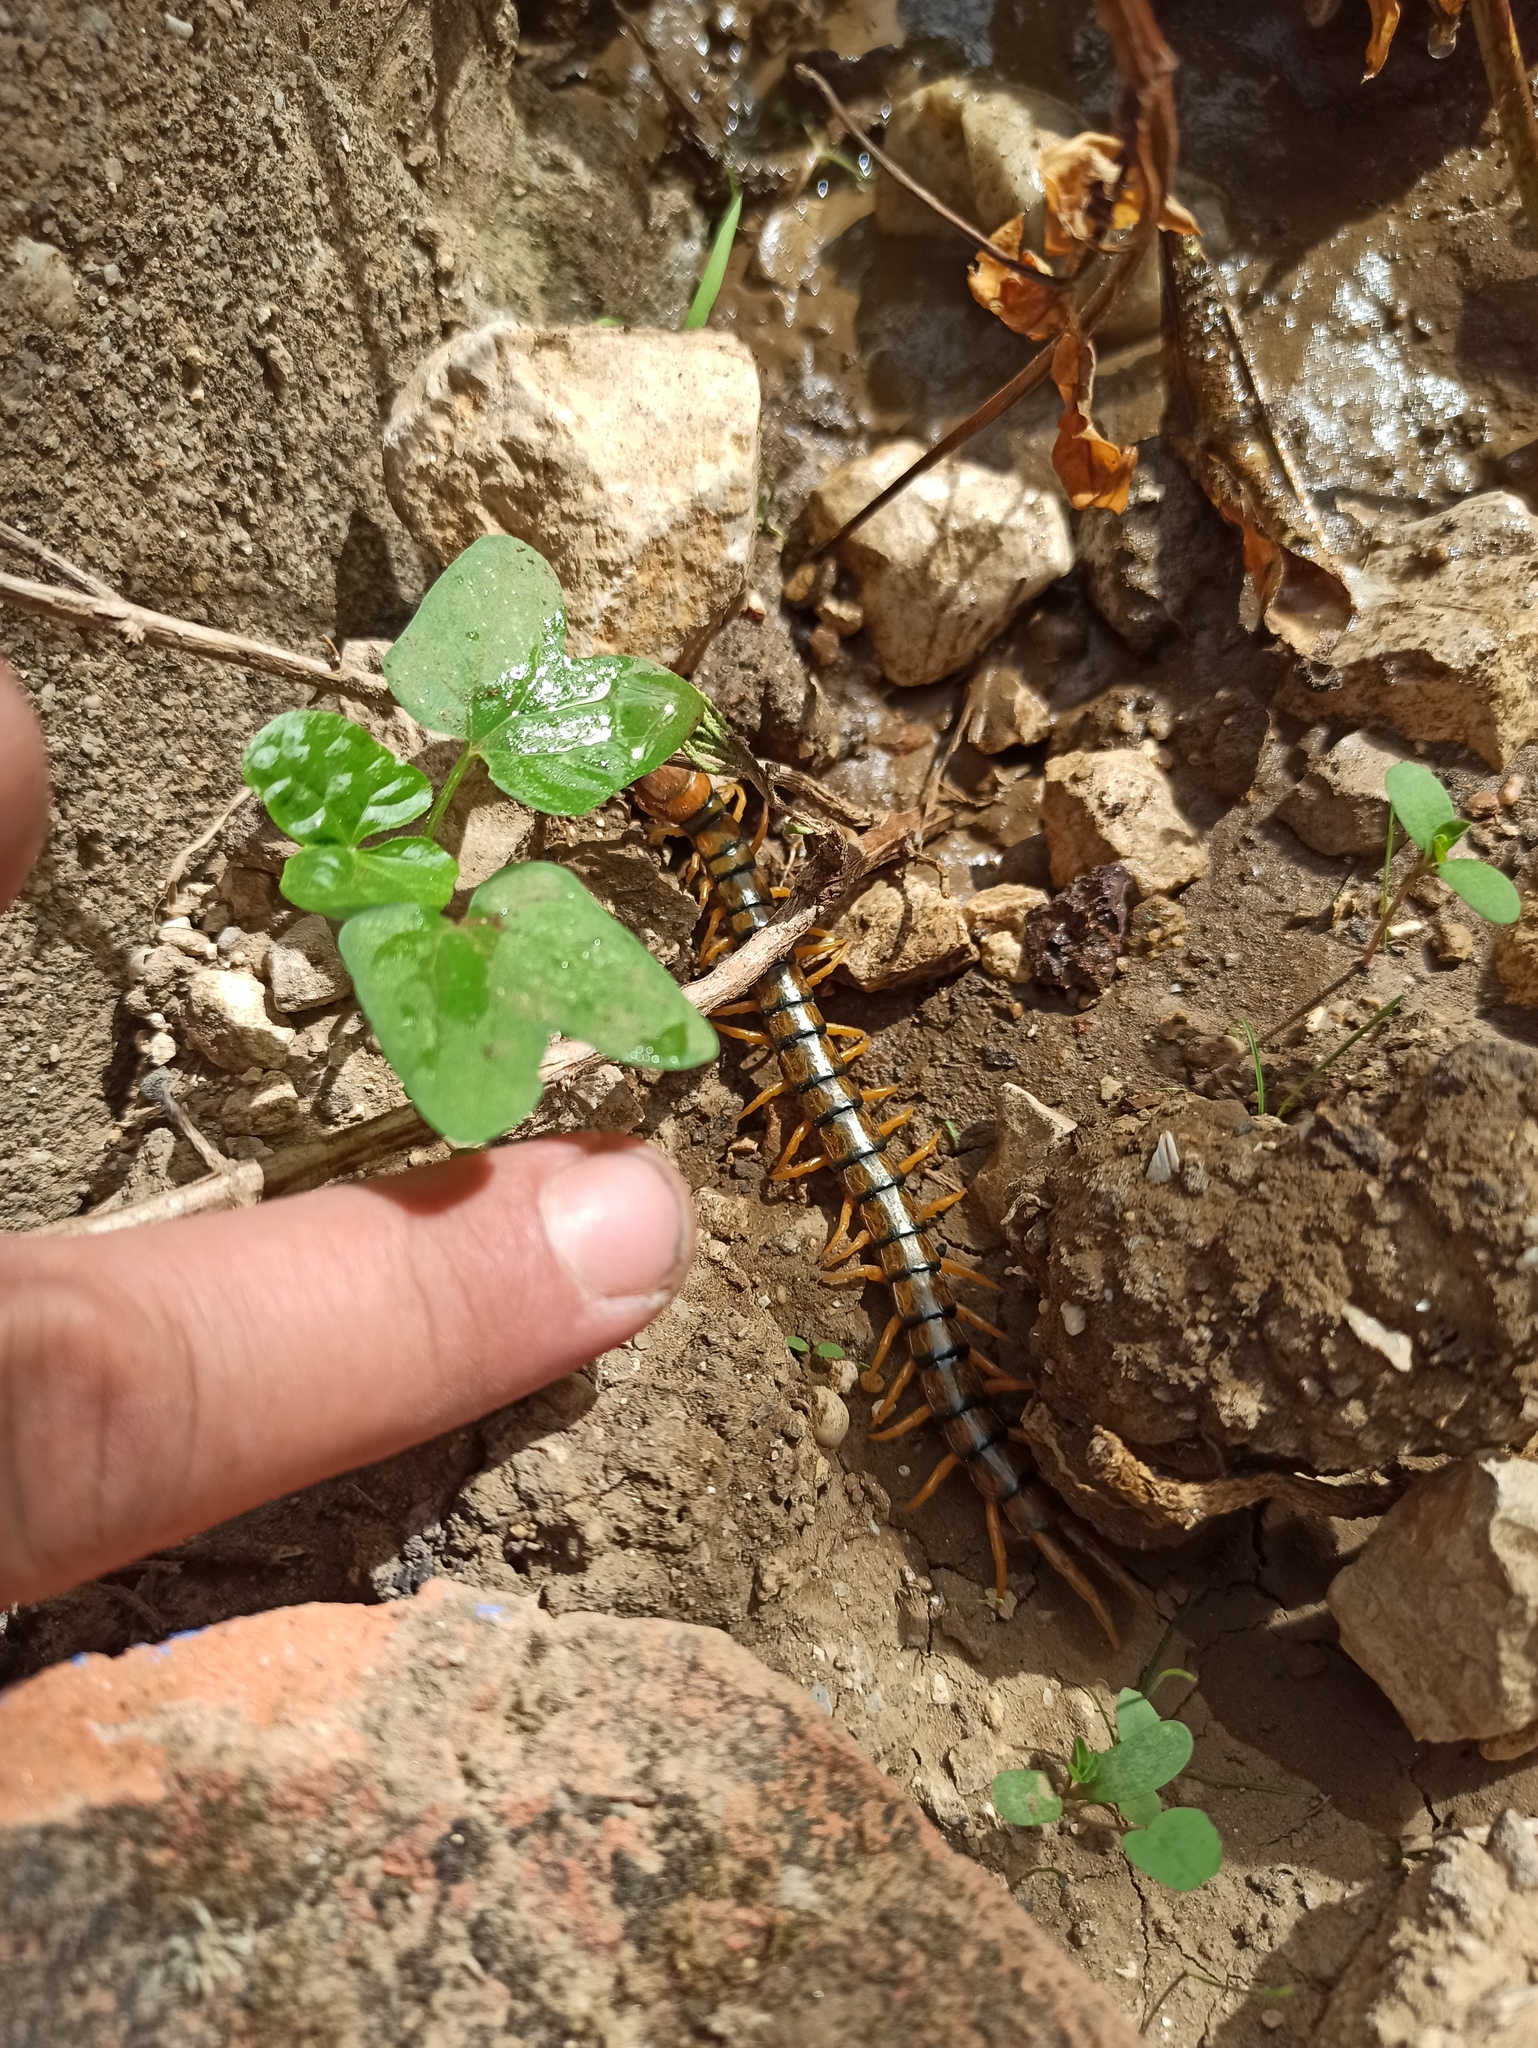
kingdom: Animalia
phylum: Arthropoda
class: Chilopoda
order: Scolopendromorpha
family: Scolopendridae
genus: Scolopendra
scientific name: Scolopendra cingulata
